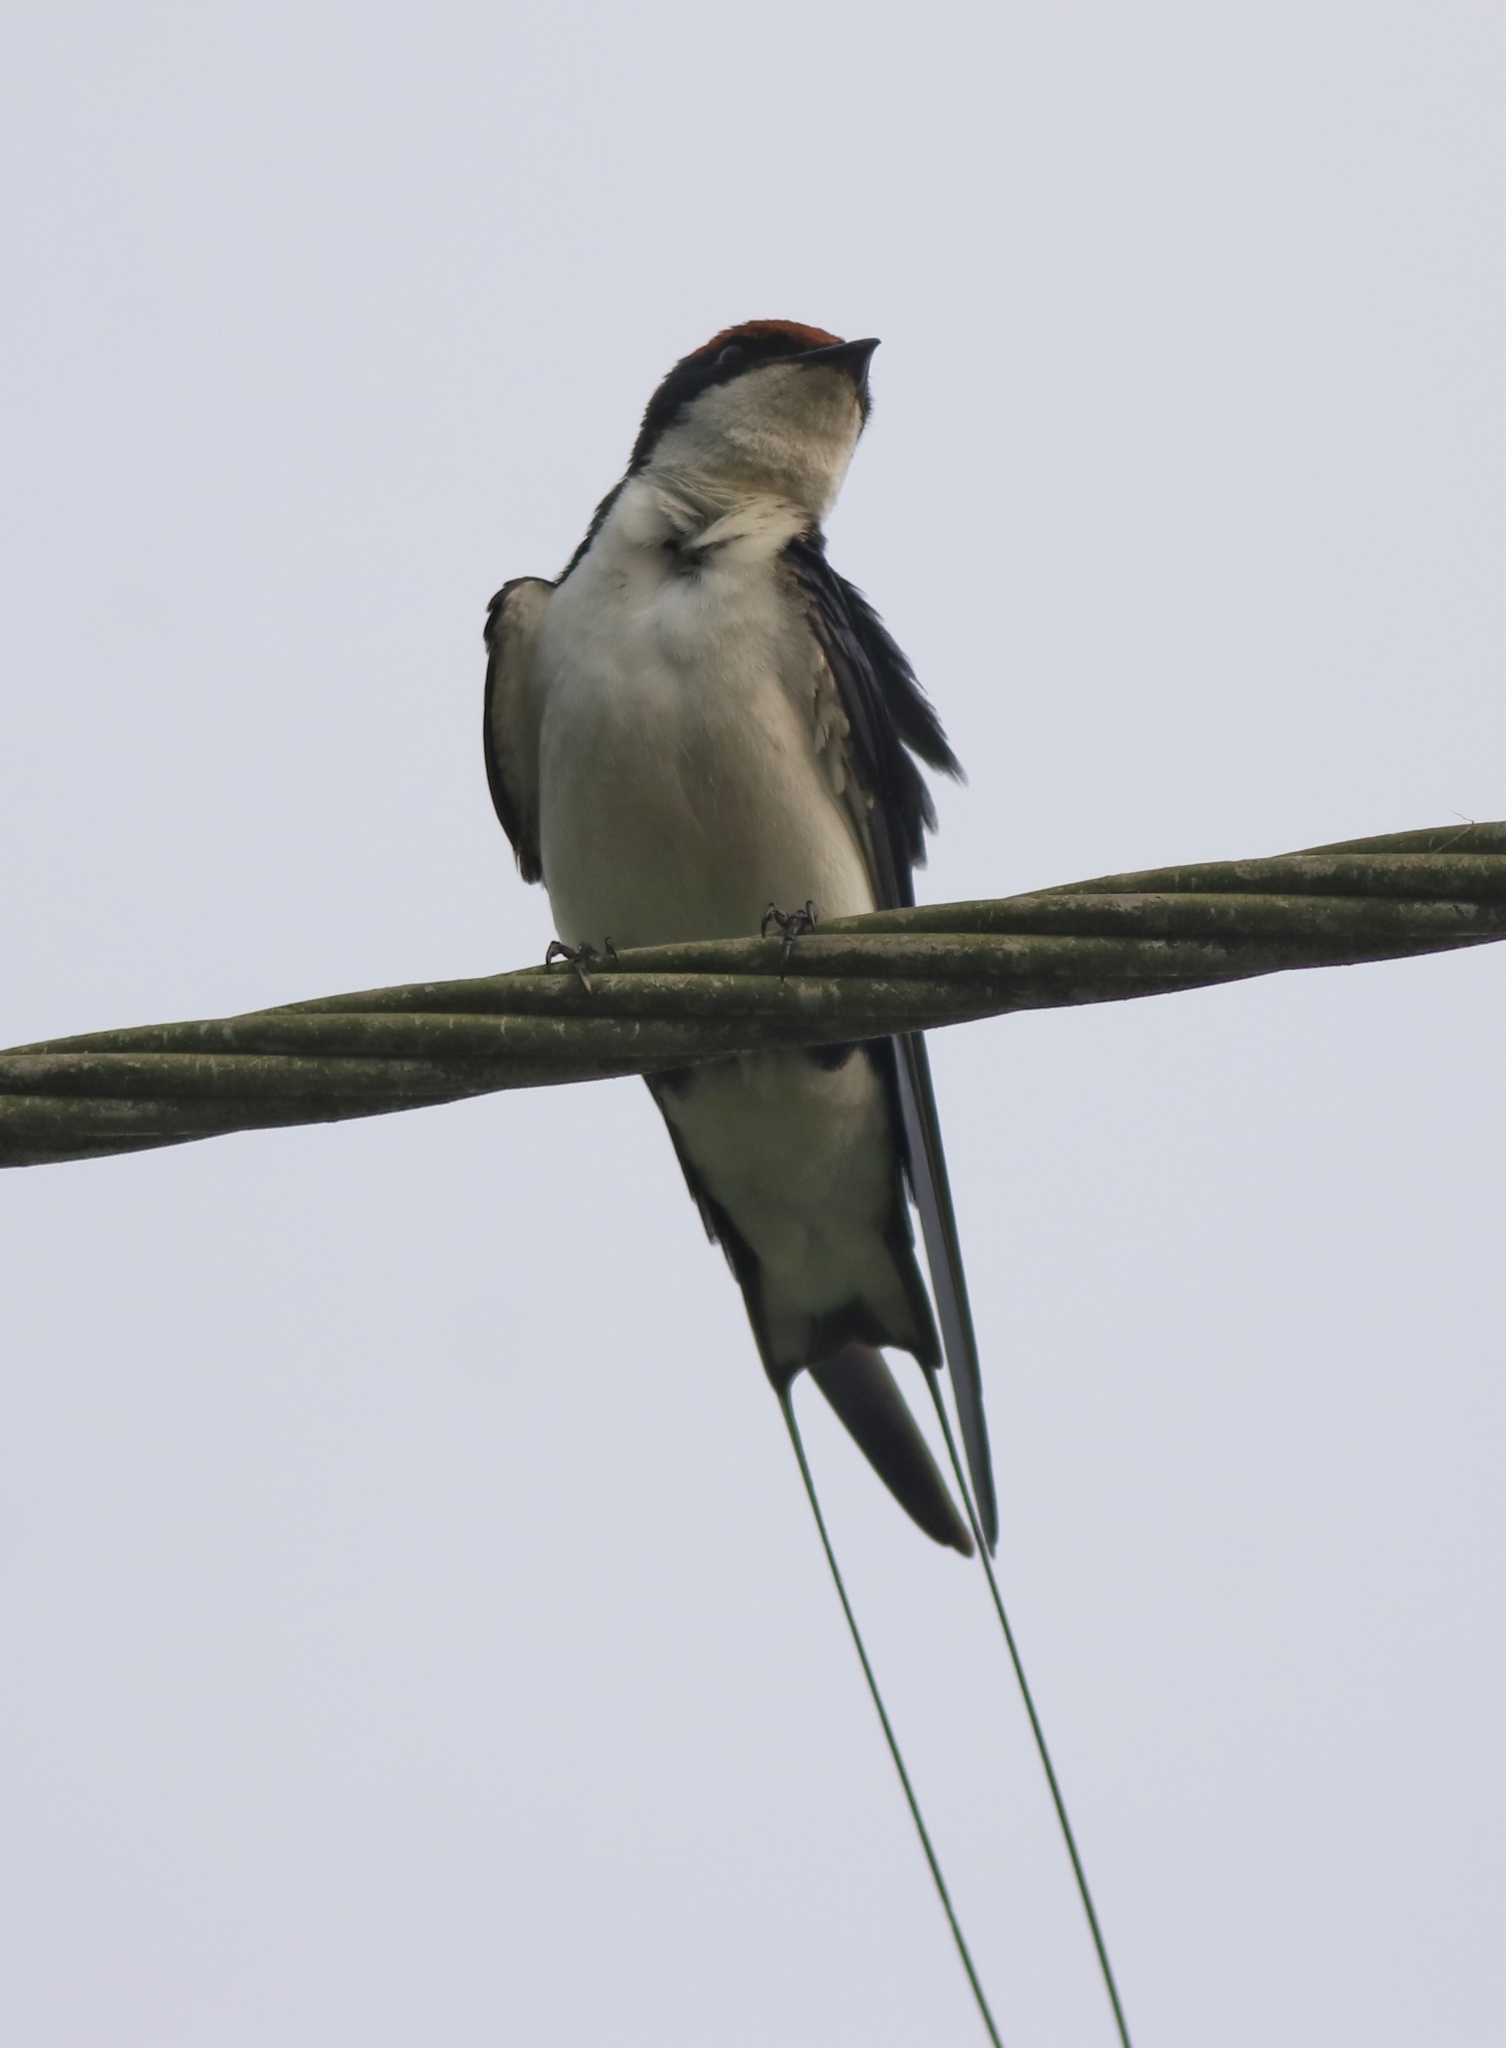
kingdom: Animalia
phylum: Chordata
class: Aves
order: Passeriformes
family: Hirundinidae
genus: Hirundo
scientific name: Hirundo smithii
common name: Wire-tailed swallow
